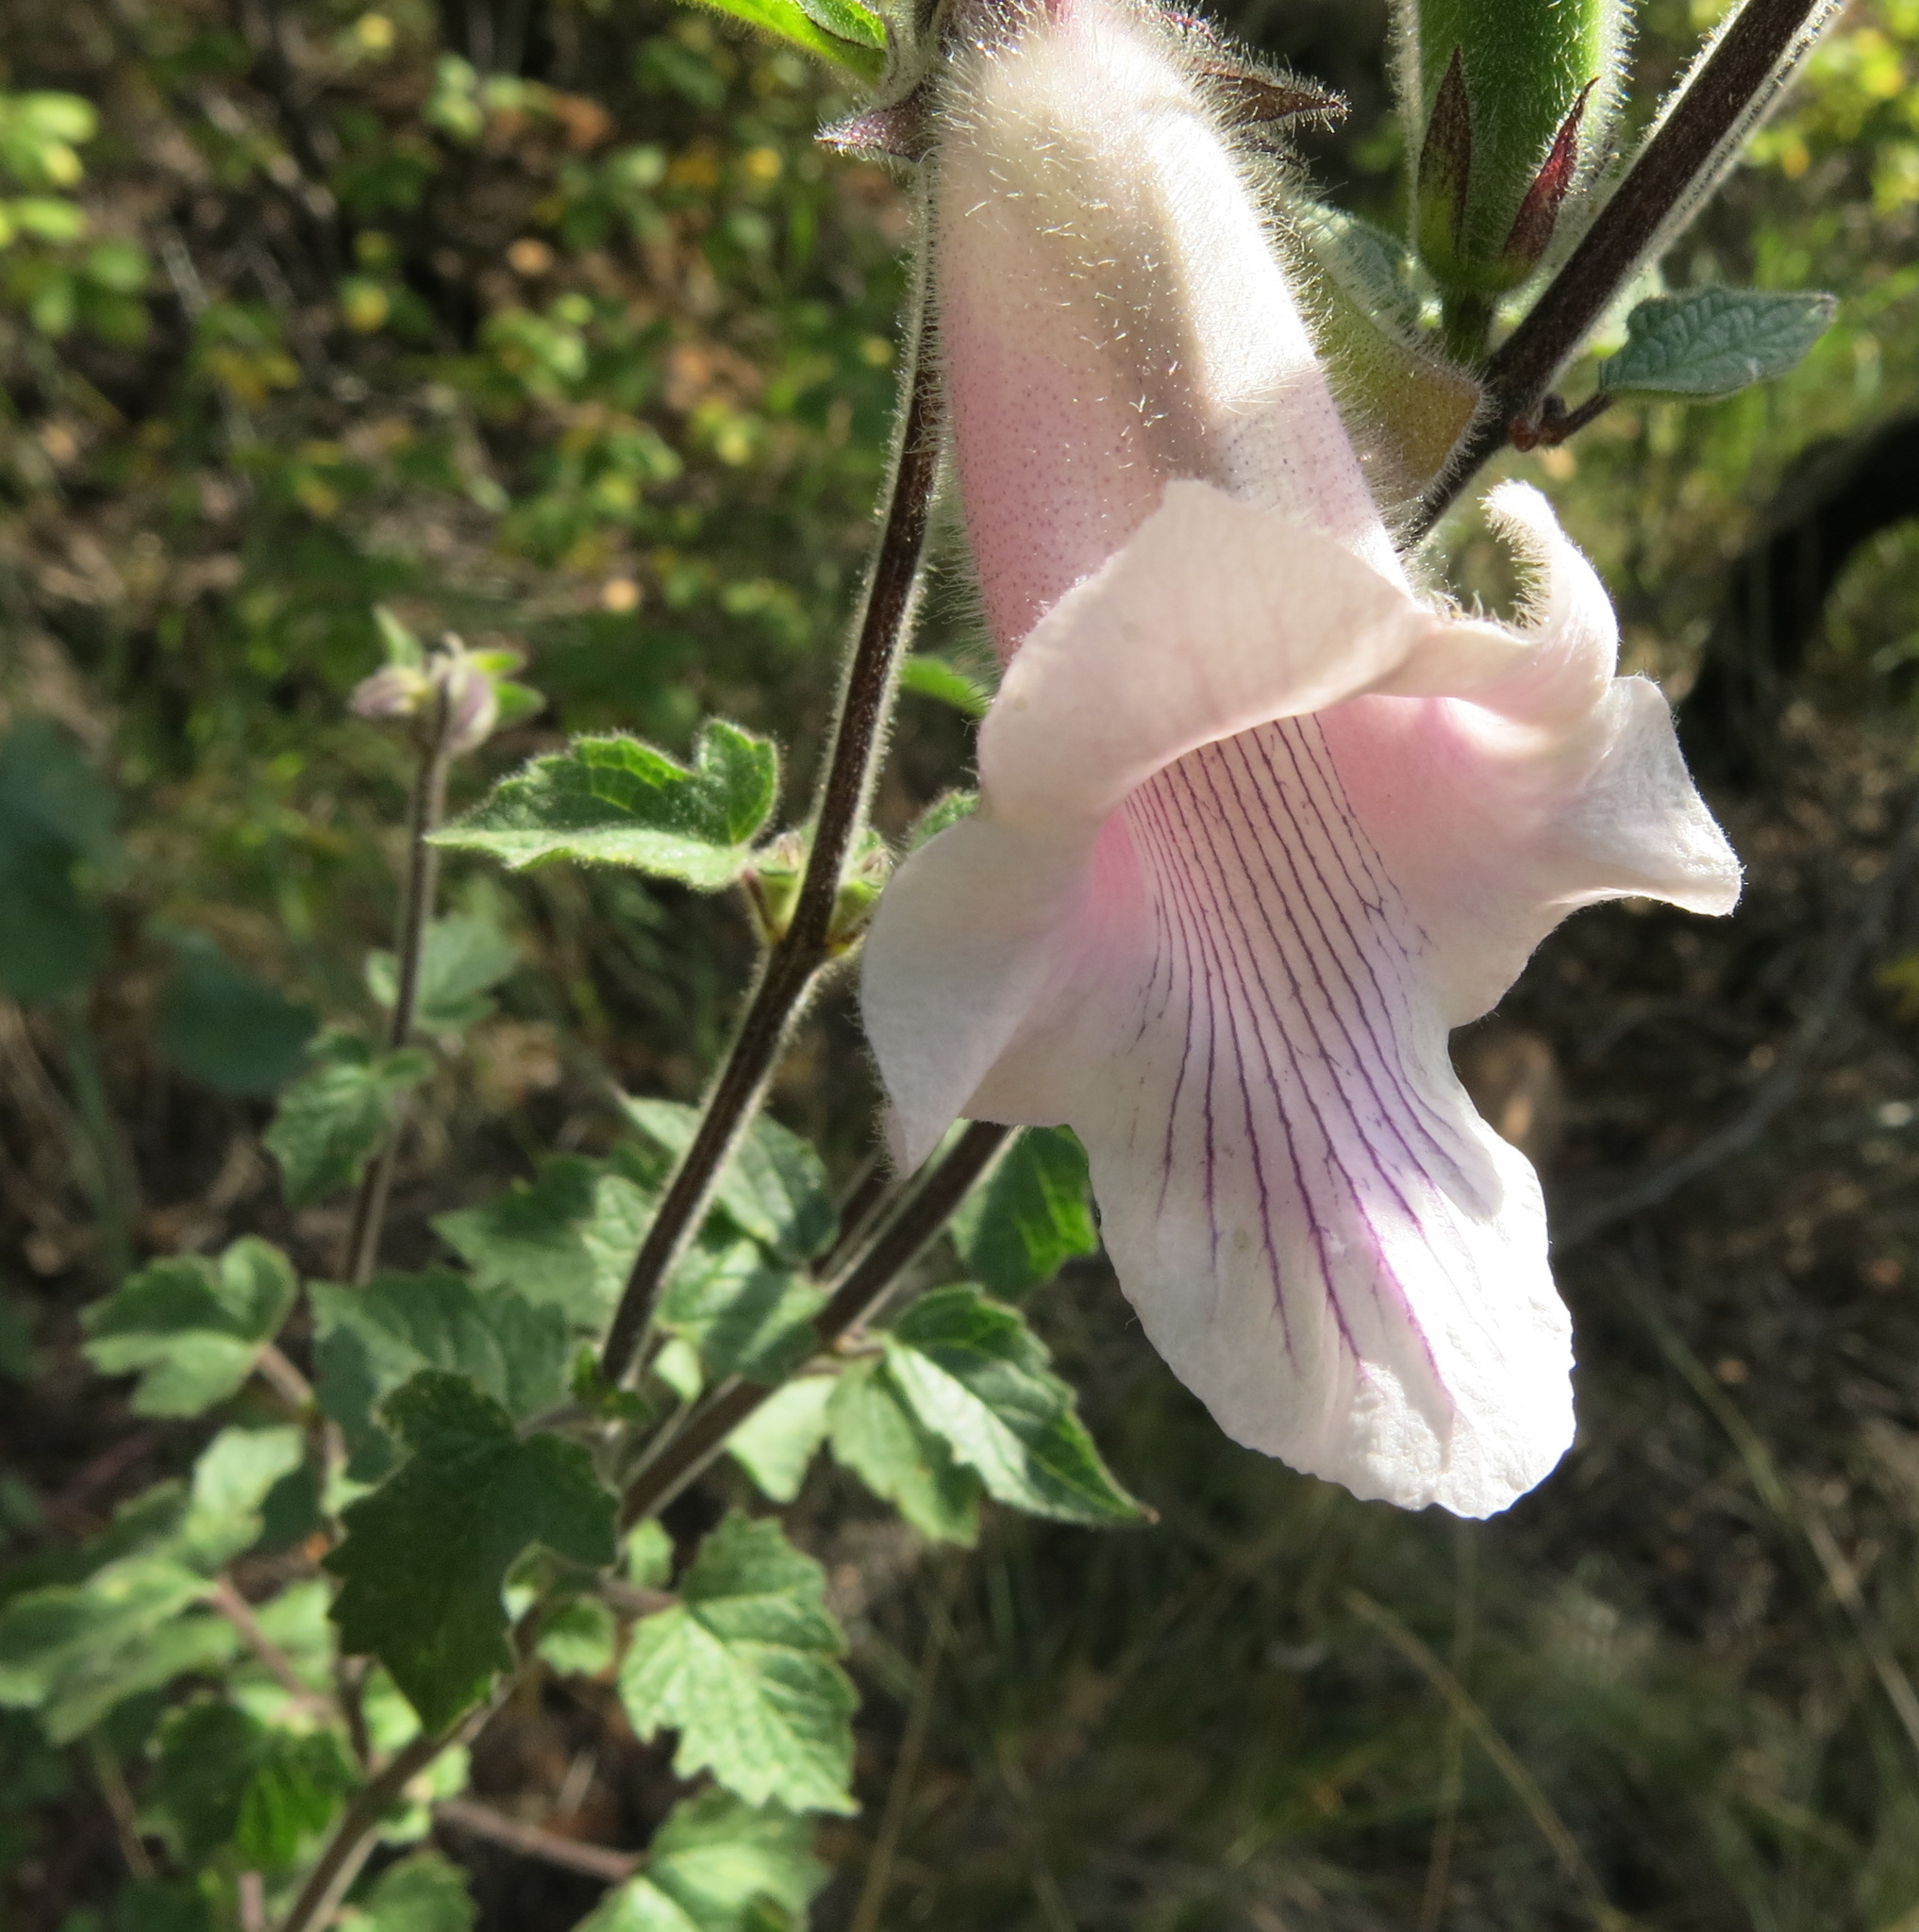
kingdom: Plantae
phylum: Tracheophyta
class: Magnoliopsida
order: Lamiales
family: Pedaliaceae
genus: Sesamum
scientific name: Sesamum trilobum
